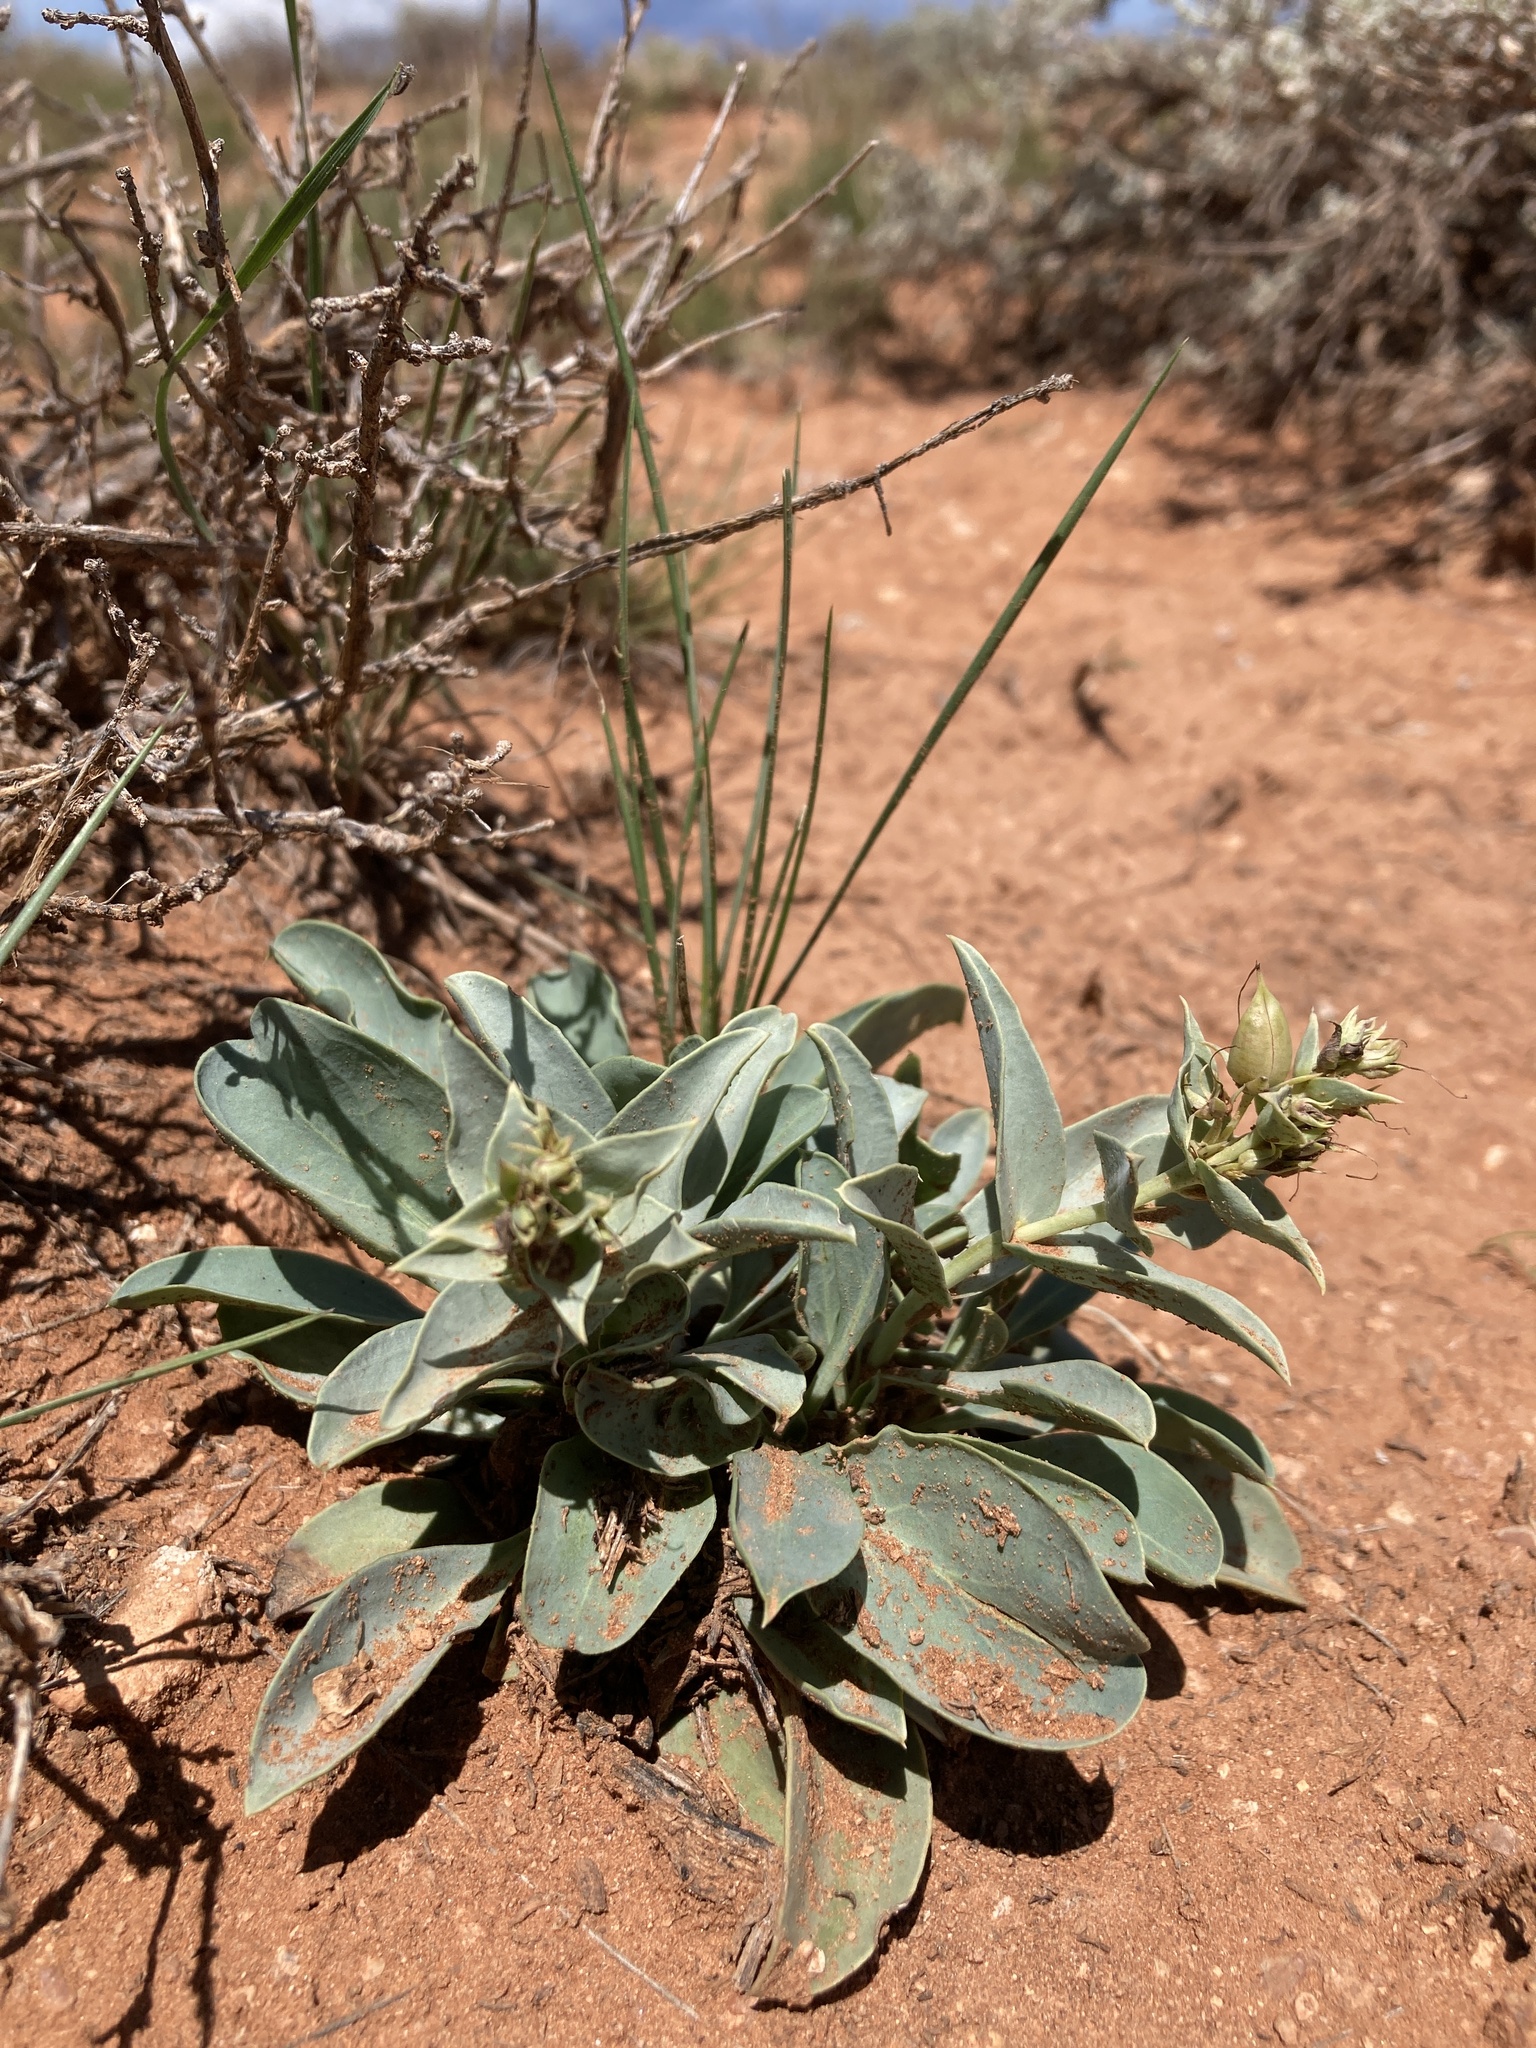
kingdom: Plantae
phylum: Tracheophyta
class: Magnoliopsida
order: Lamiales
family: Plantaginaceae
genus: Penstemon
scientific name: Penstemon nitidus
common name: Shining penstemon
